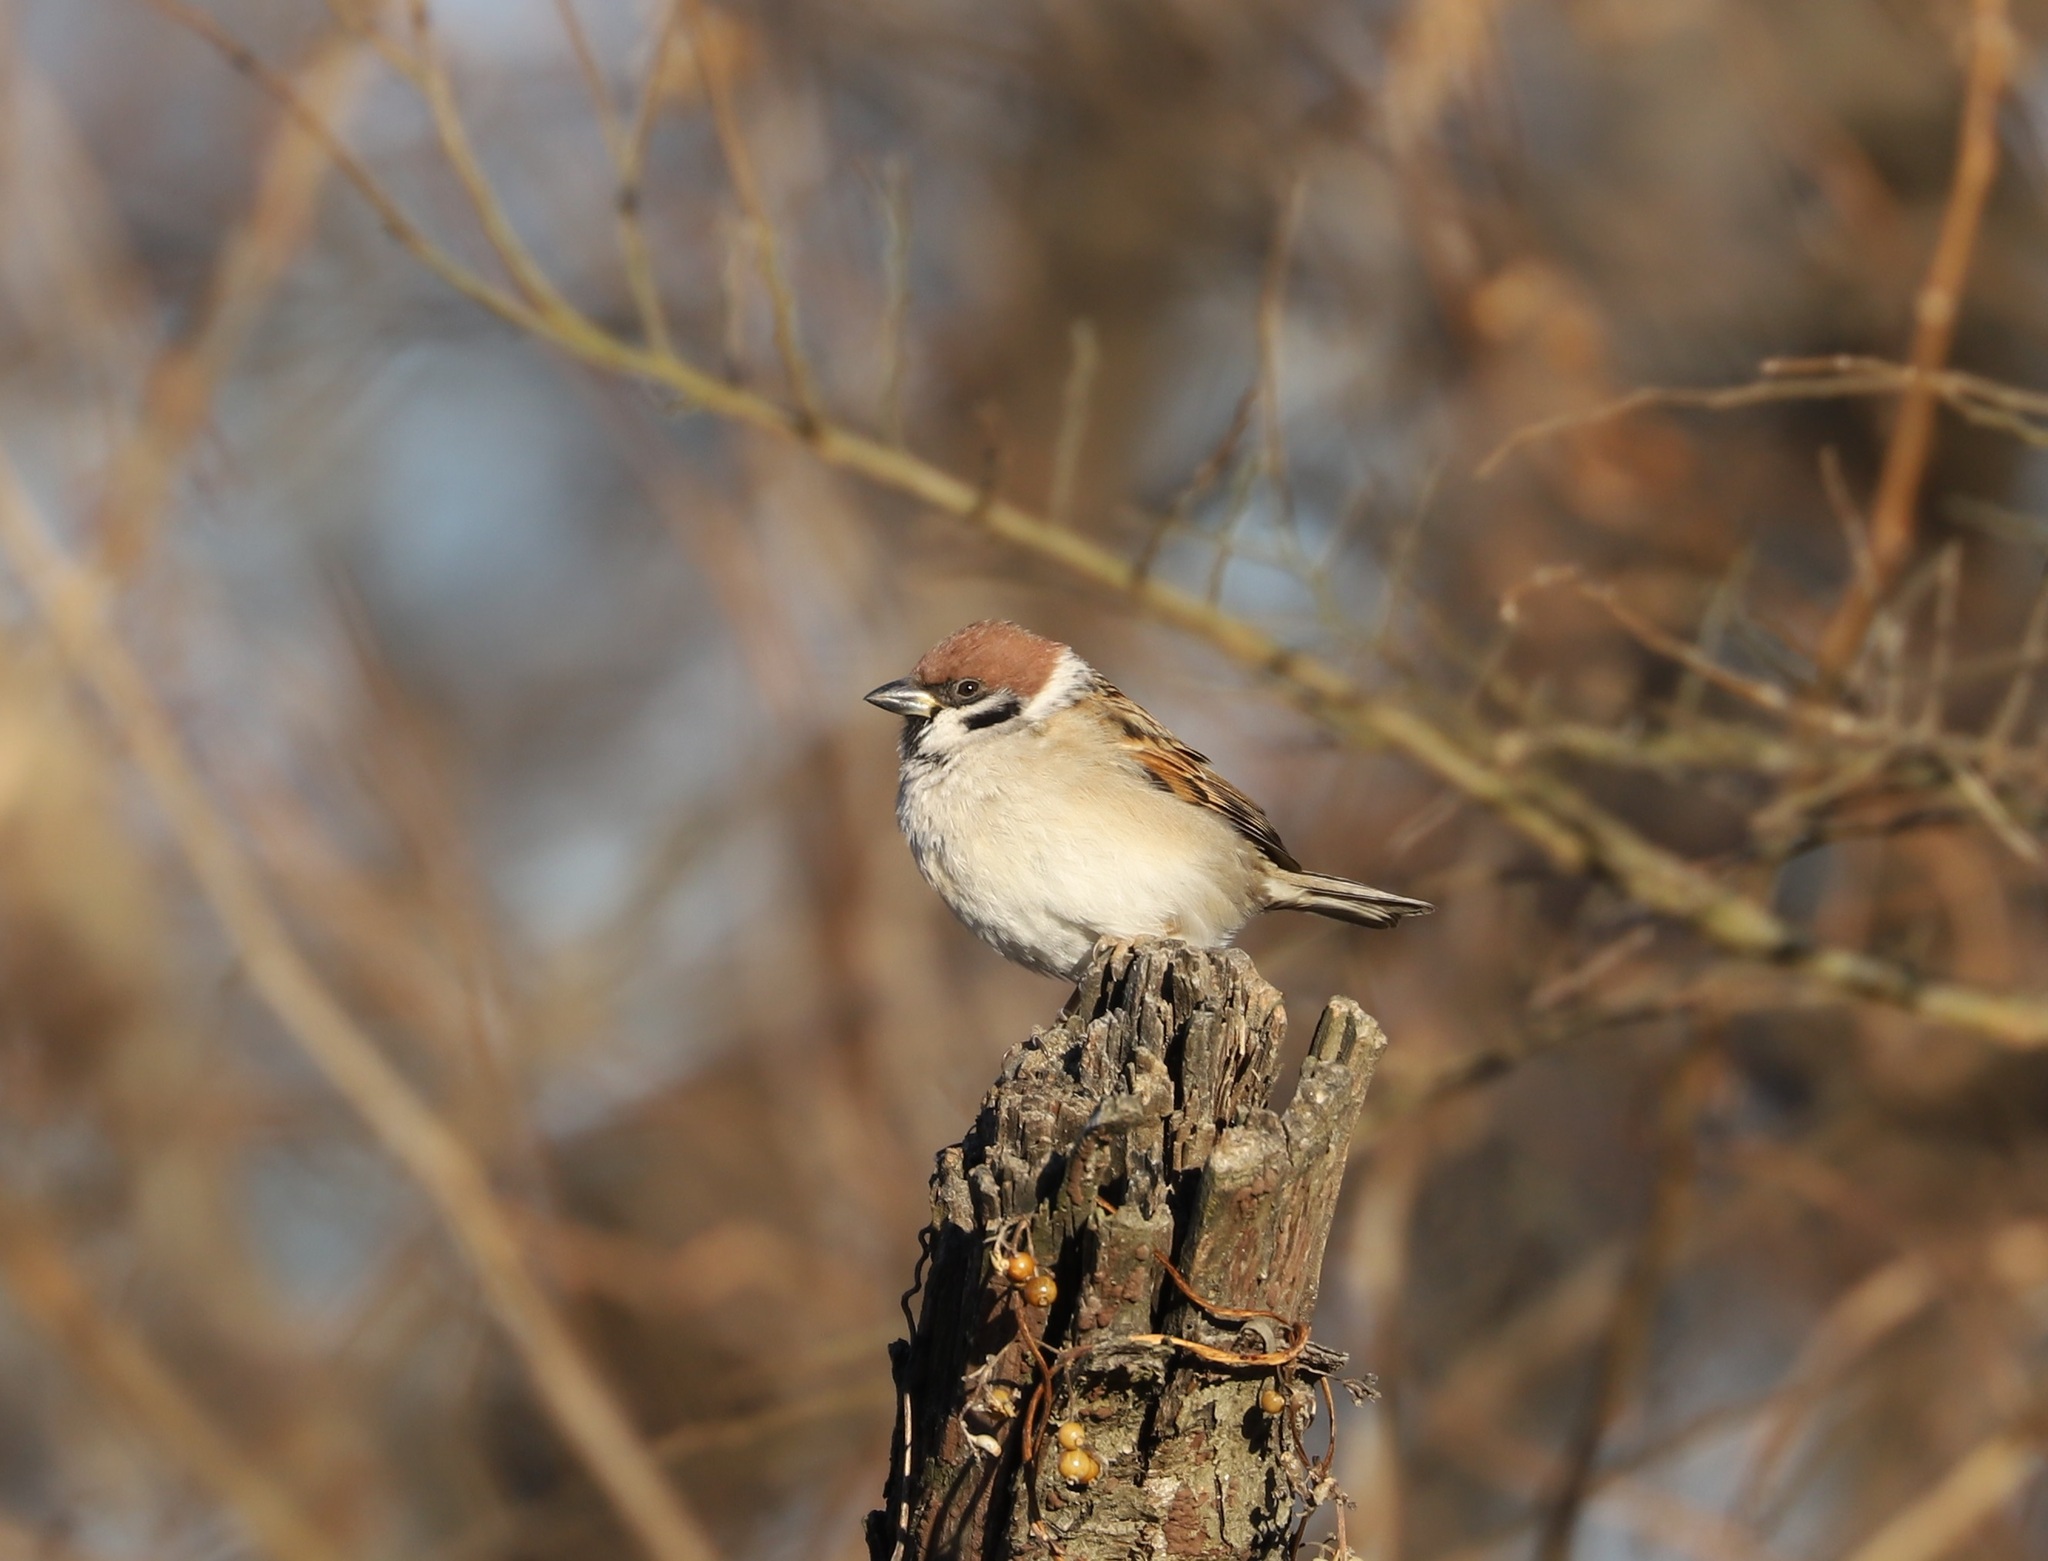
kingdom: Animalia
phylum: Chordata
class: Aves
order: Passeriformes
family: Passeridae
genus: Passer
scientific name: Passer montanus
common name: Eurasian tree sparrow
